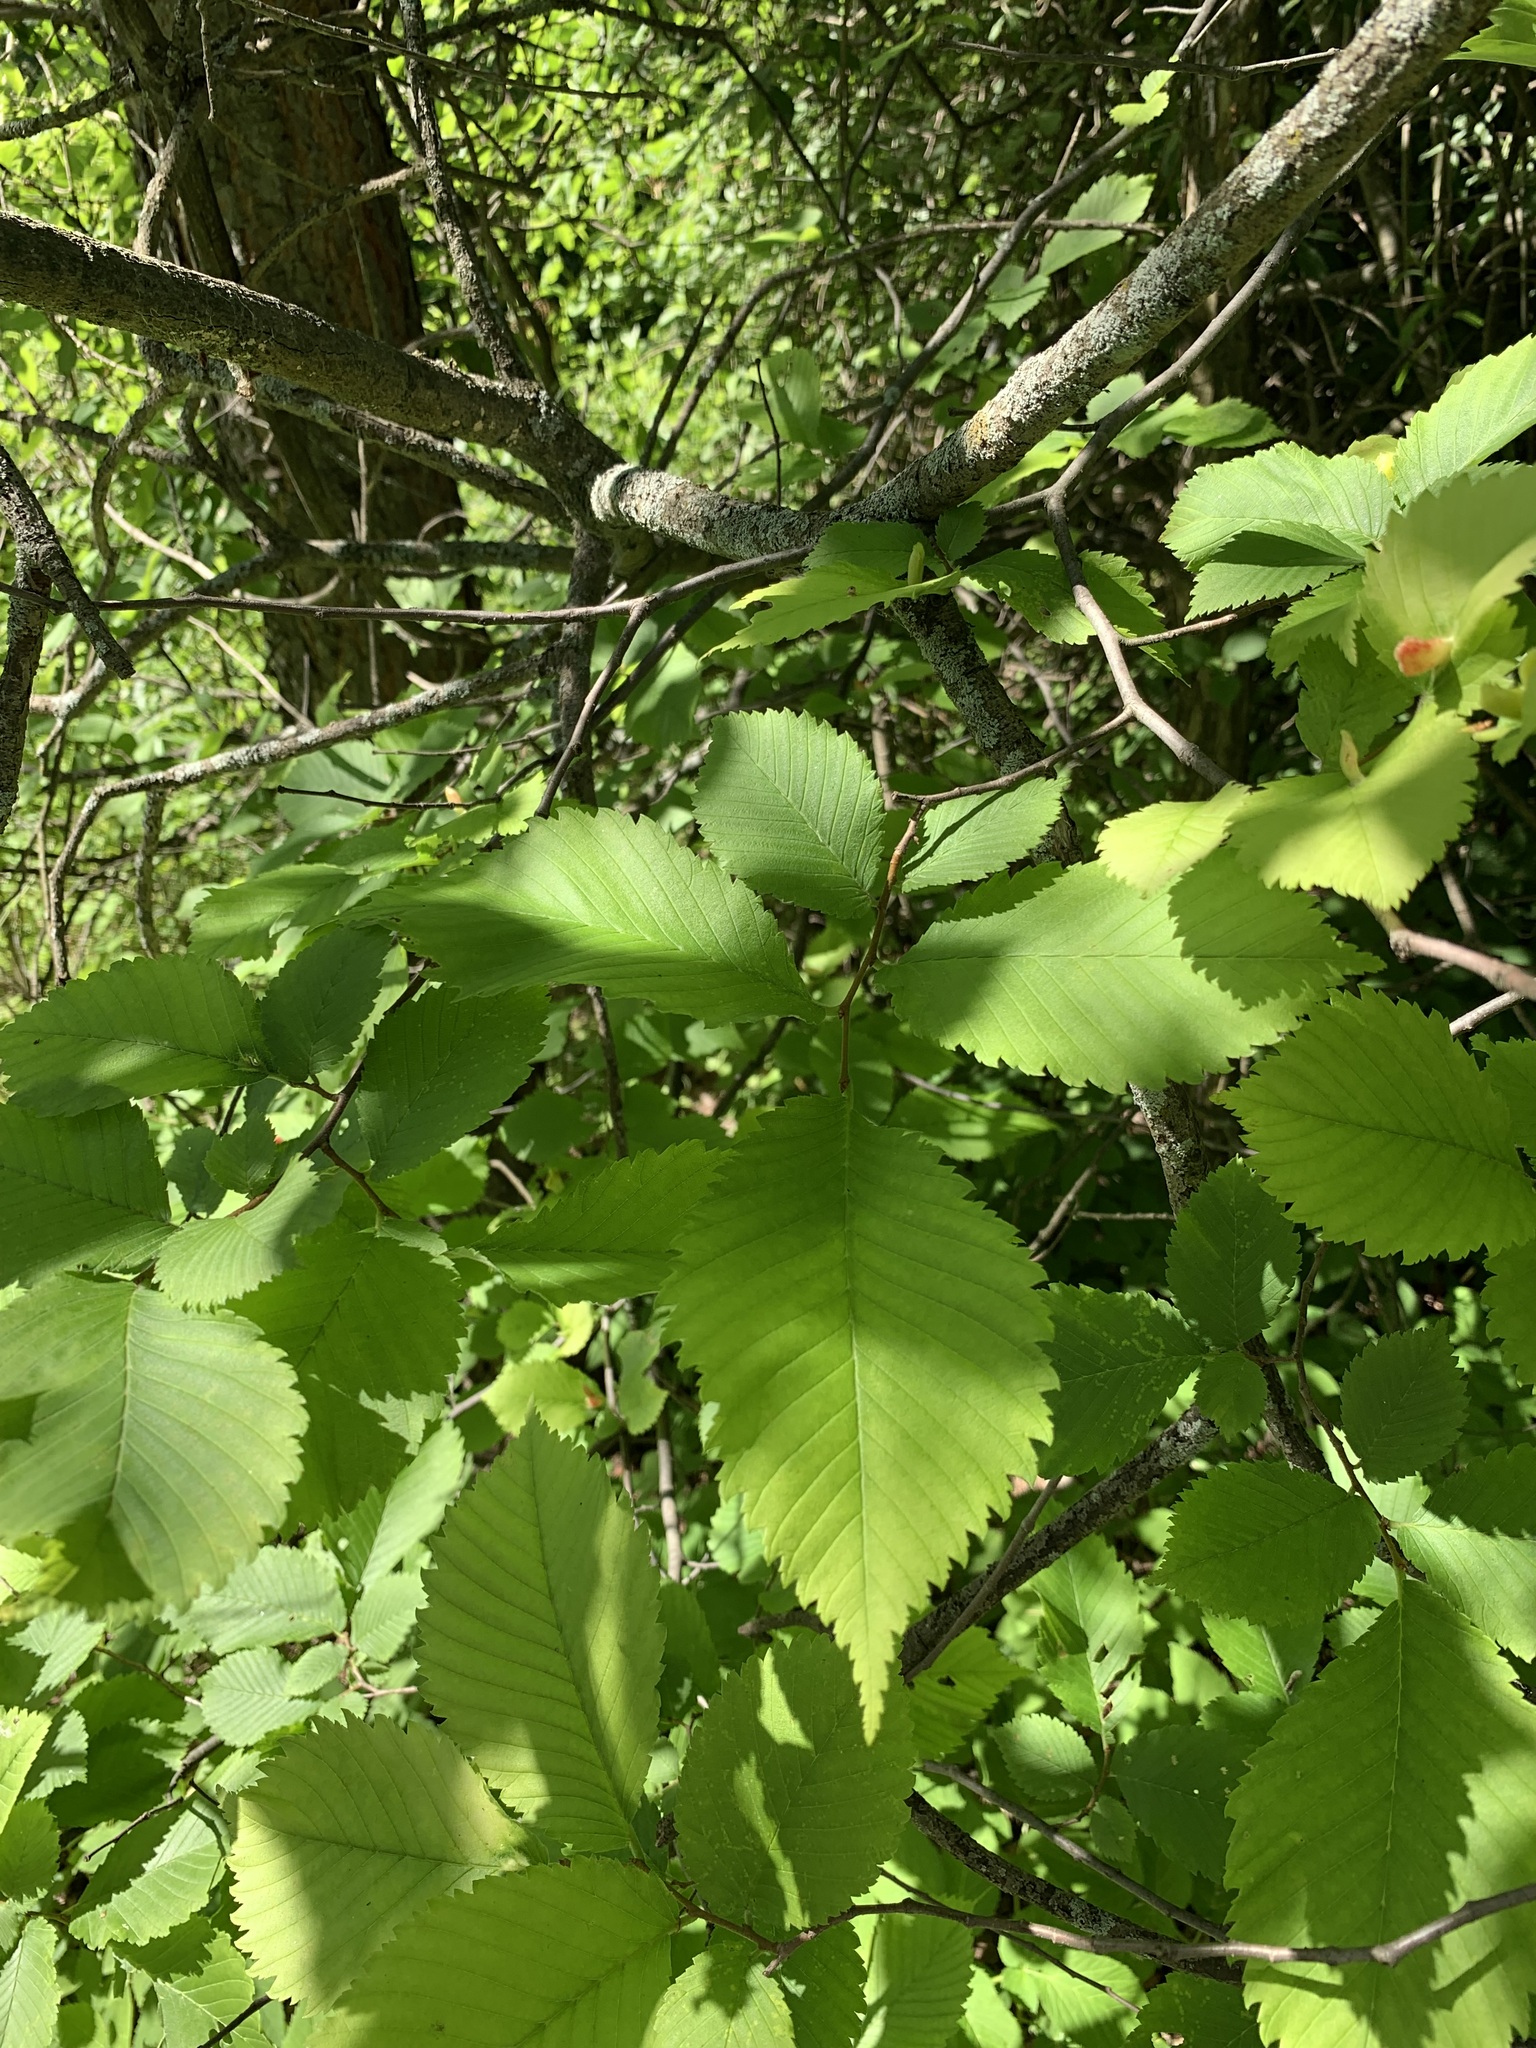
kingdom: Plantae
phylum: Tracheophyta
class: Magnoliopsida
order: Rosales
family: Ulmaceae
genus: Ulmus
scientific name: Ulmus laevis
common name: European white-elm
